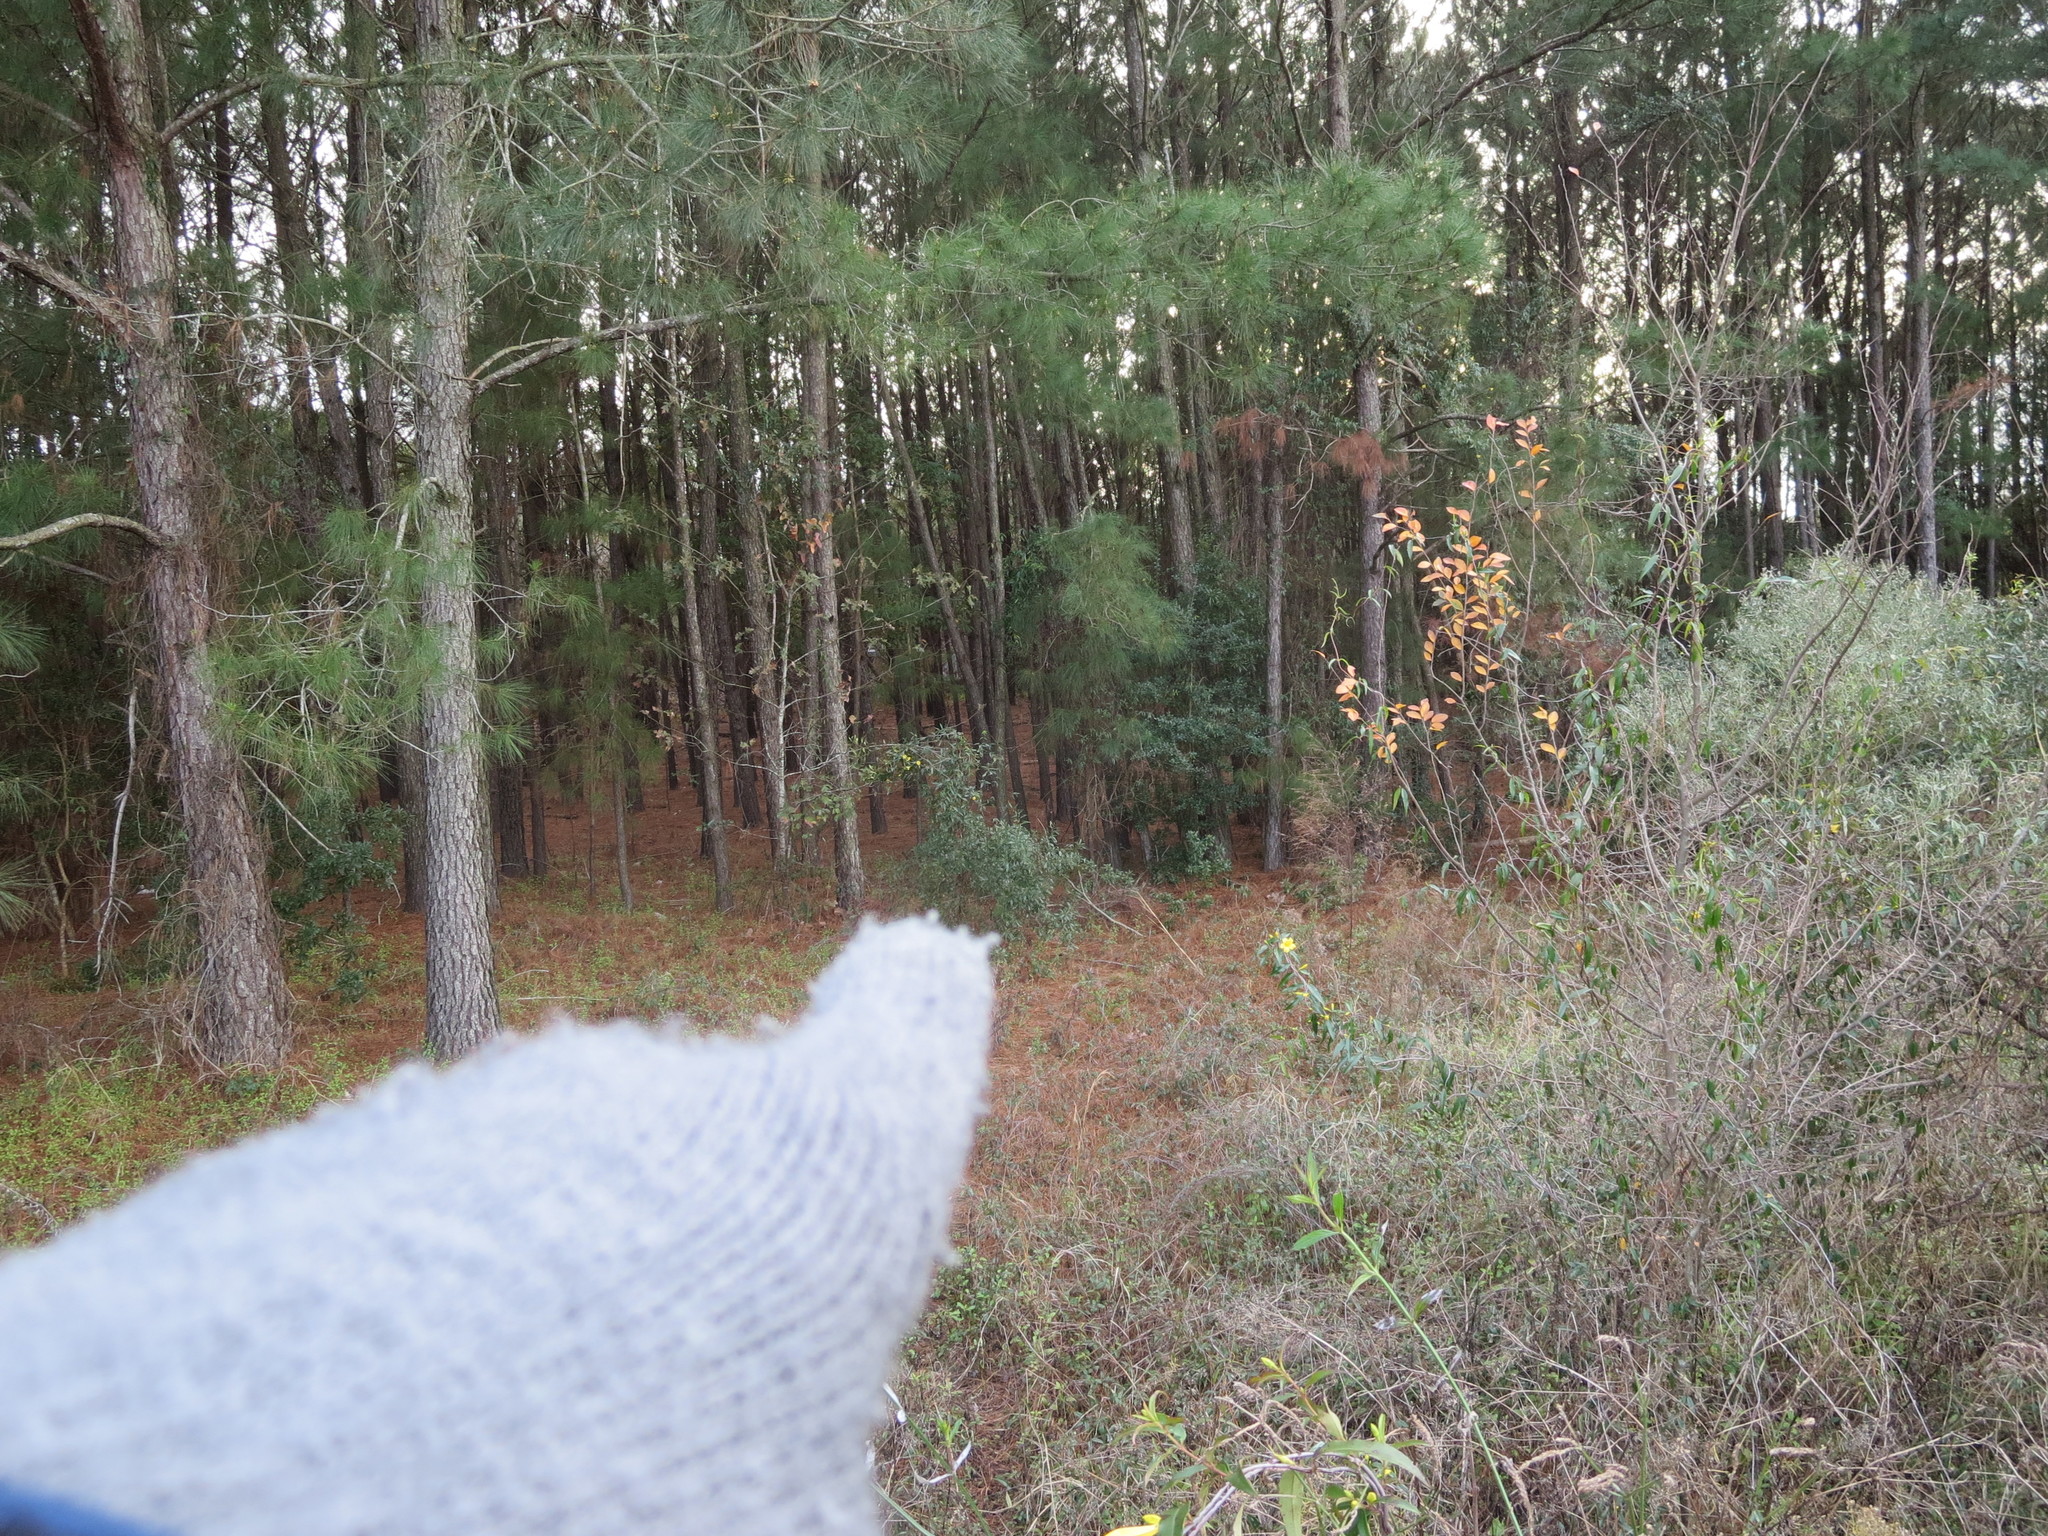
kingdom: Plantae
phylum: Tracheophyta
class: Magnoliopsida
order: Gentianales
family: Gelsemiaceae
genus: Gelsemium
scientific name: Gelsemium sempervirens
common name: Carolina-jasmine
